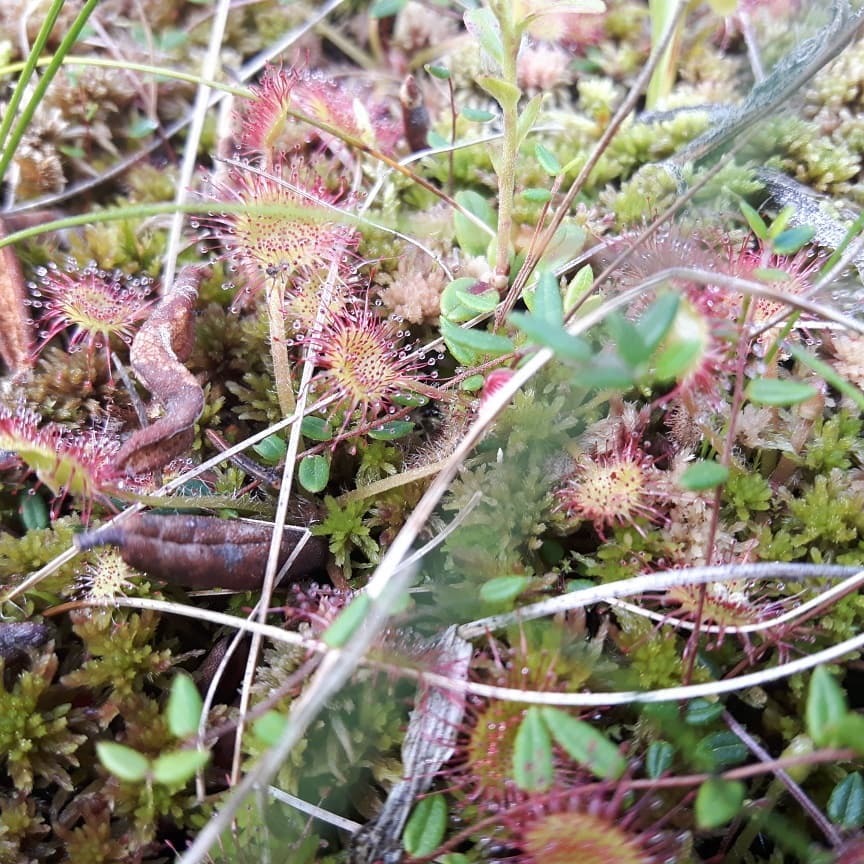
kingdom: Plantae
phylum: Tracheophyta
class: Magnoliopsida
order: Caryophyllales
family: Droseraceae
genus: Drosera
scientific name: Drosera rotundifolia
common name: Round-leaved sundew
